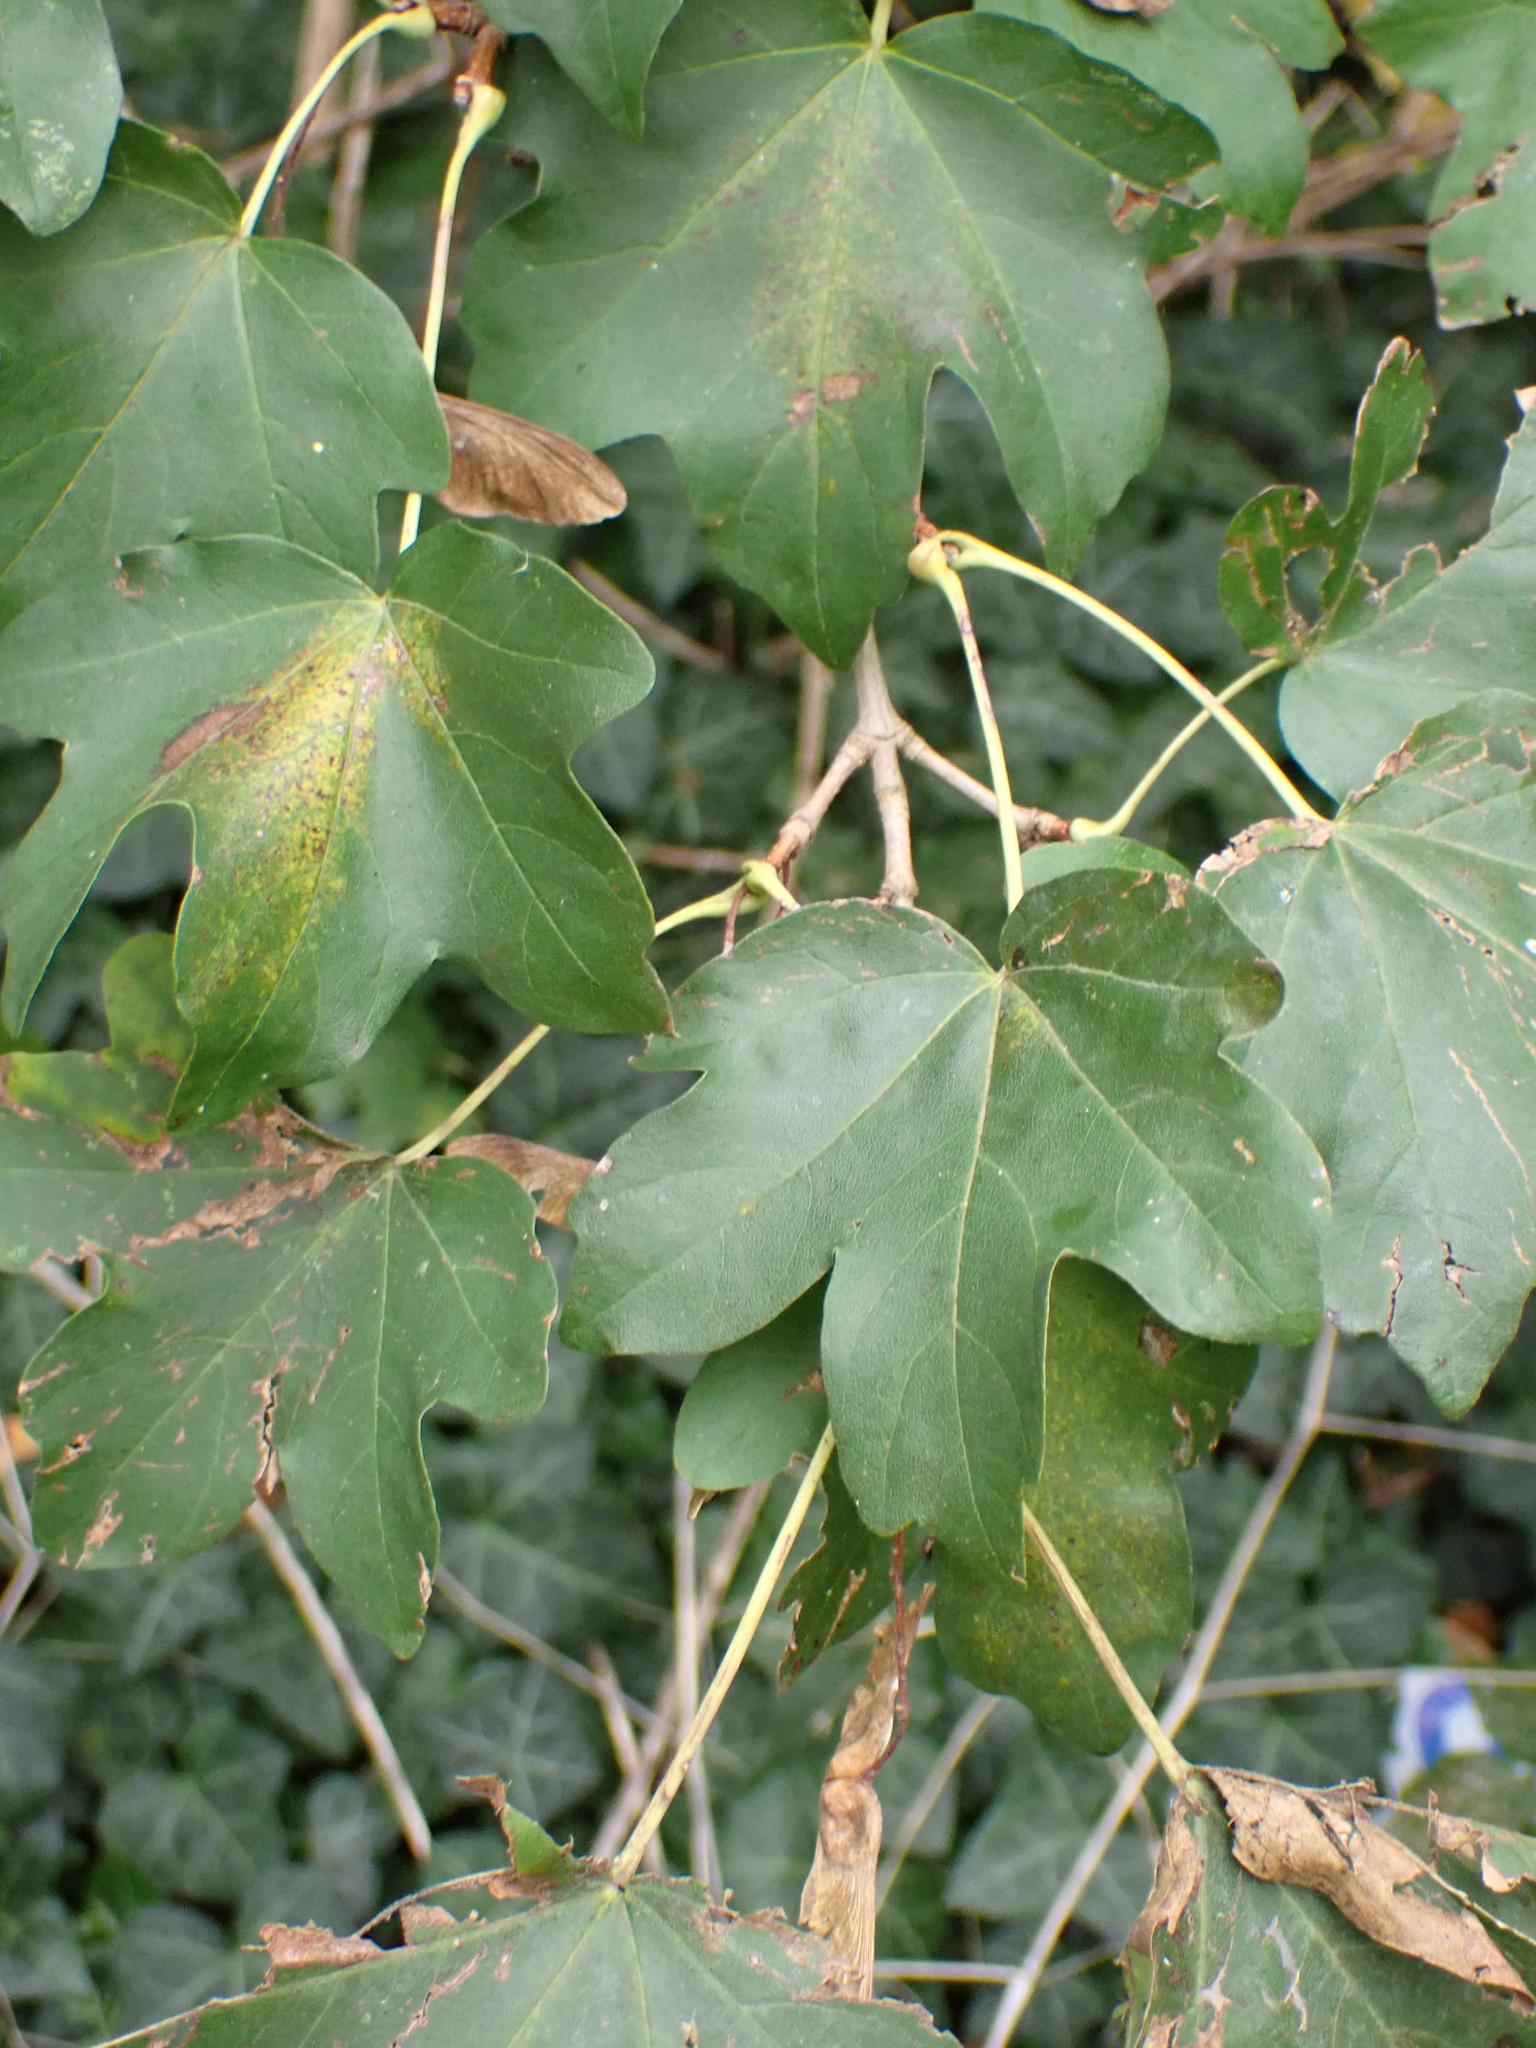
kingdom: Plantae
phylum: Tracheophyta
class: Magnoliopsida
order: Sapindales
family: Sapindaceae
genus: Acer
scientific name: Acer campestre
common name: Field maple
